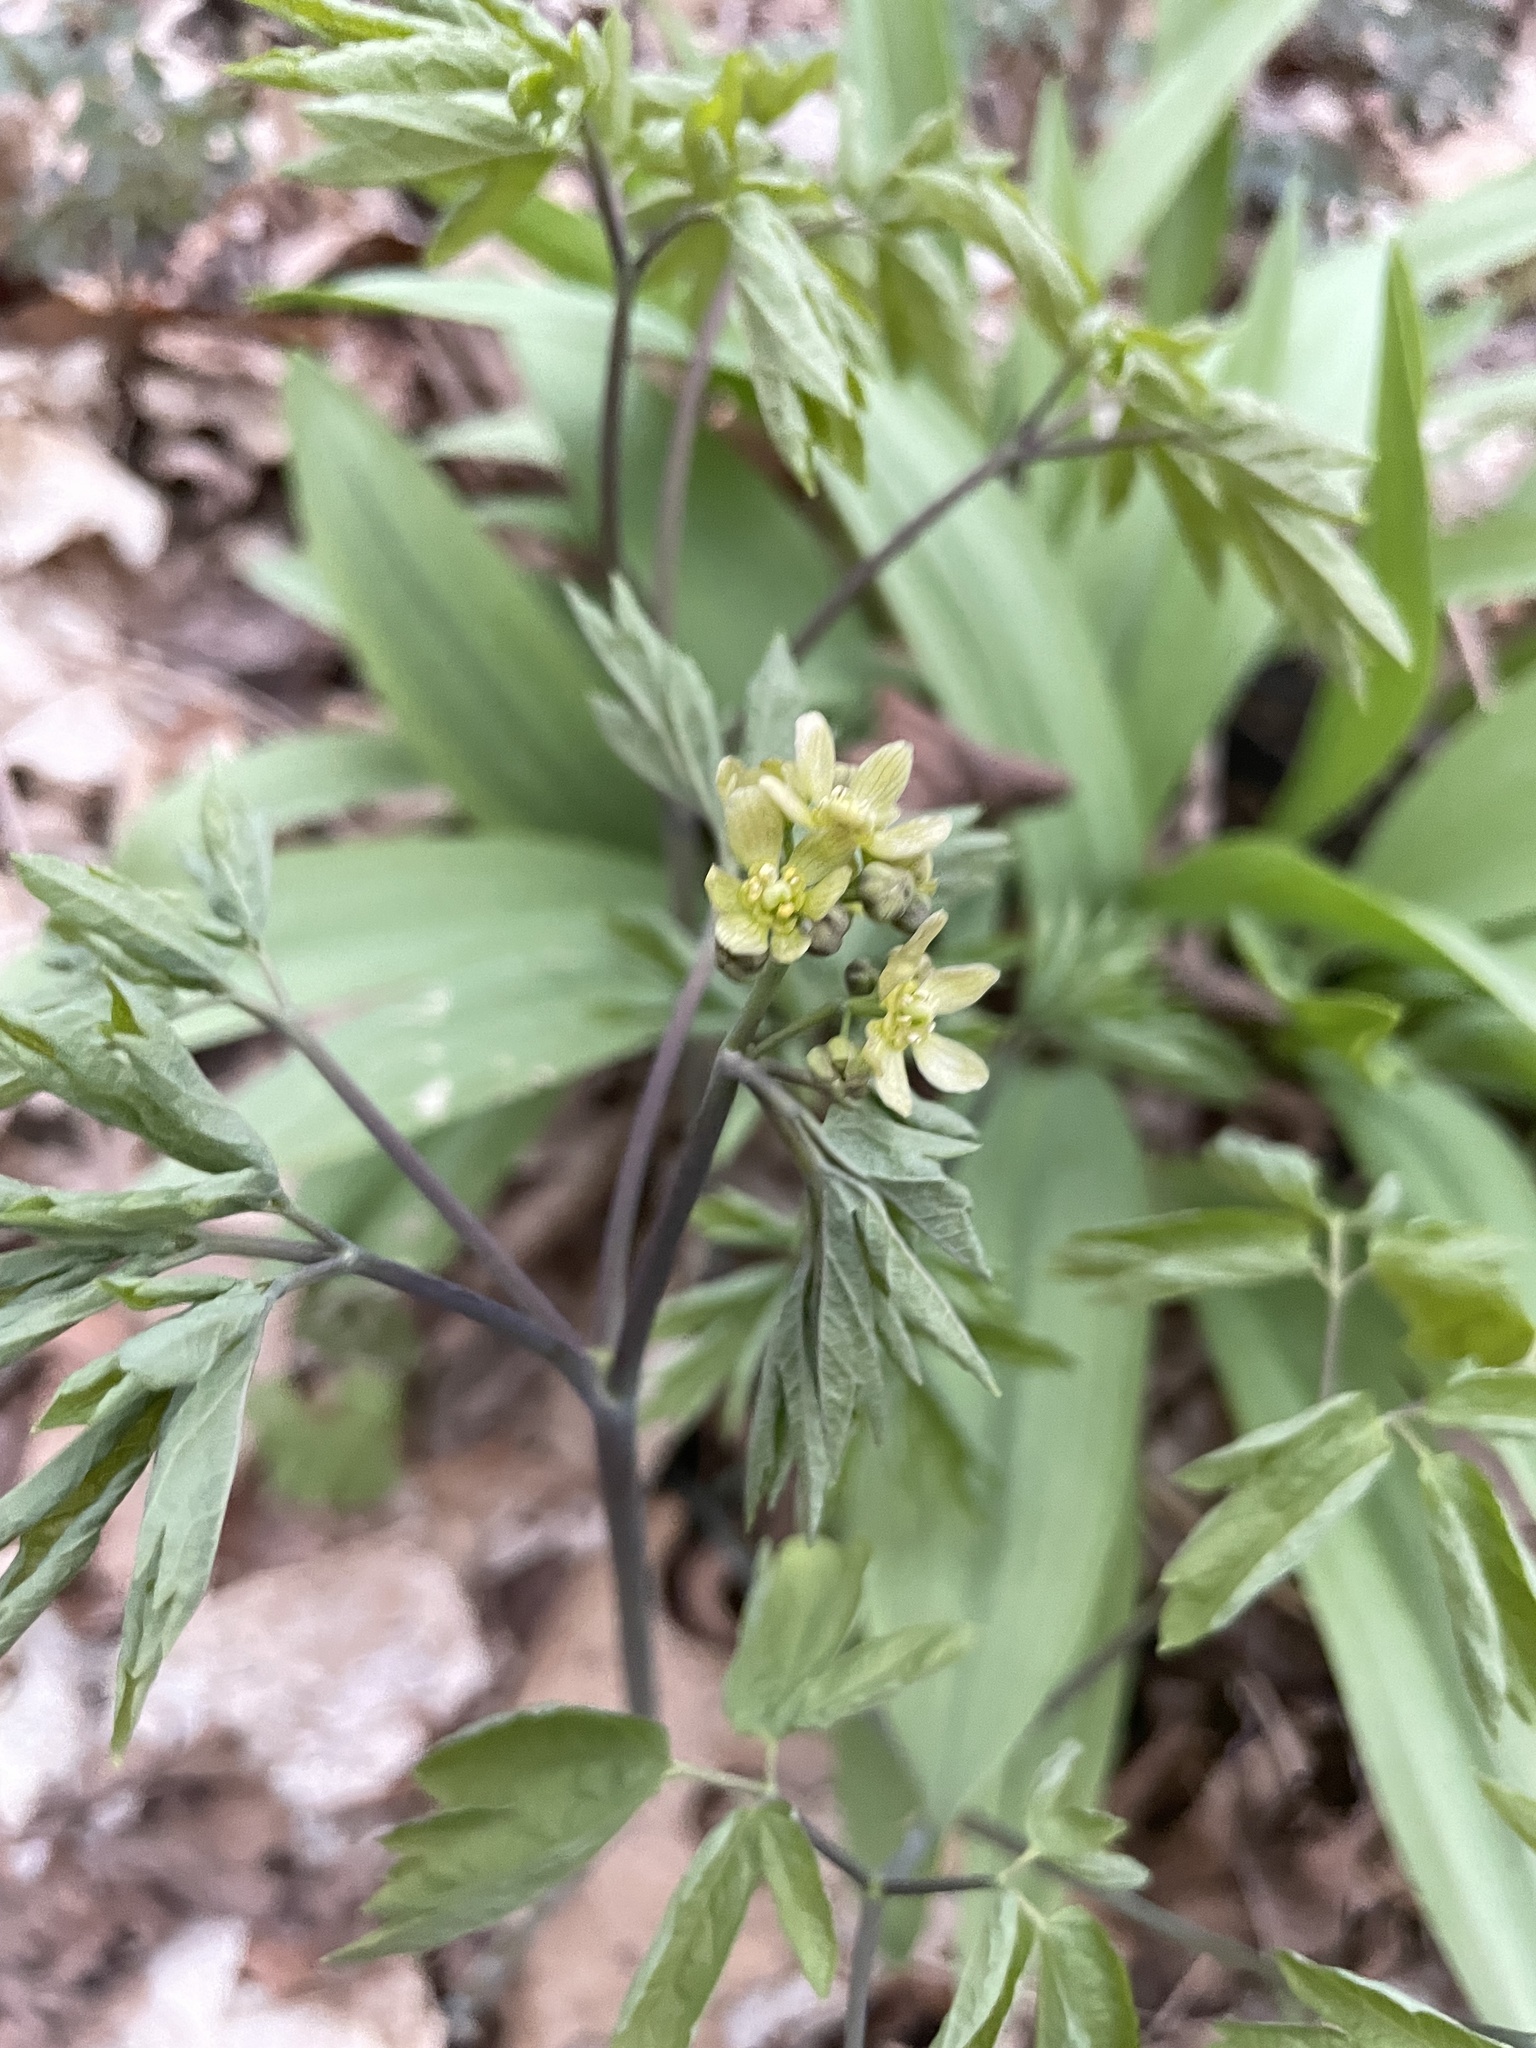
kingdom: Plantae
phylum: Tracheophyta
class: Magnoliopsida
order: Ranunculales
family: Berberidaceae
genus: Caulophyllum
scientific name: Caulophyllum thalictroides
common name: Blue cohosh
